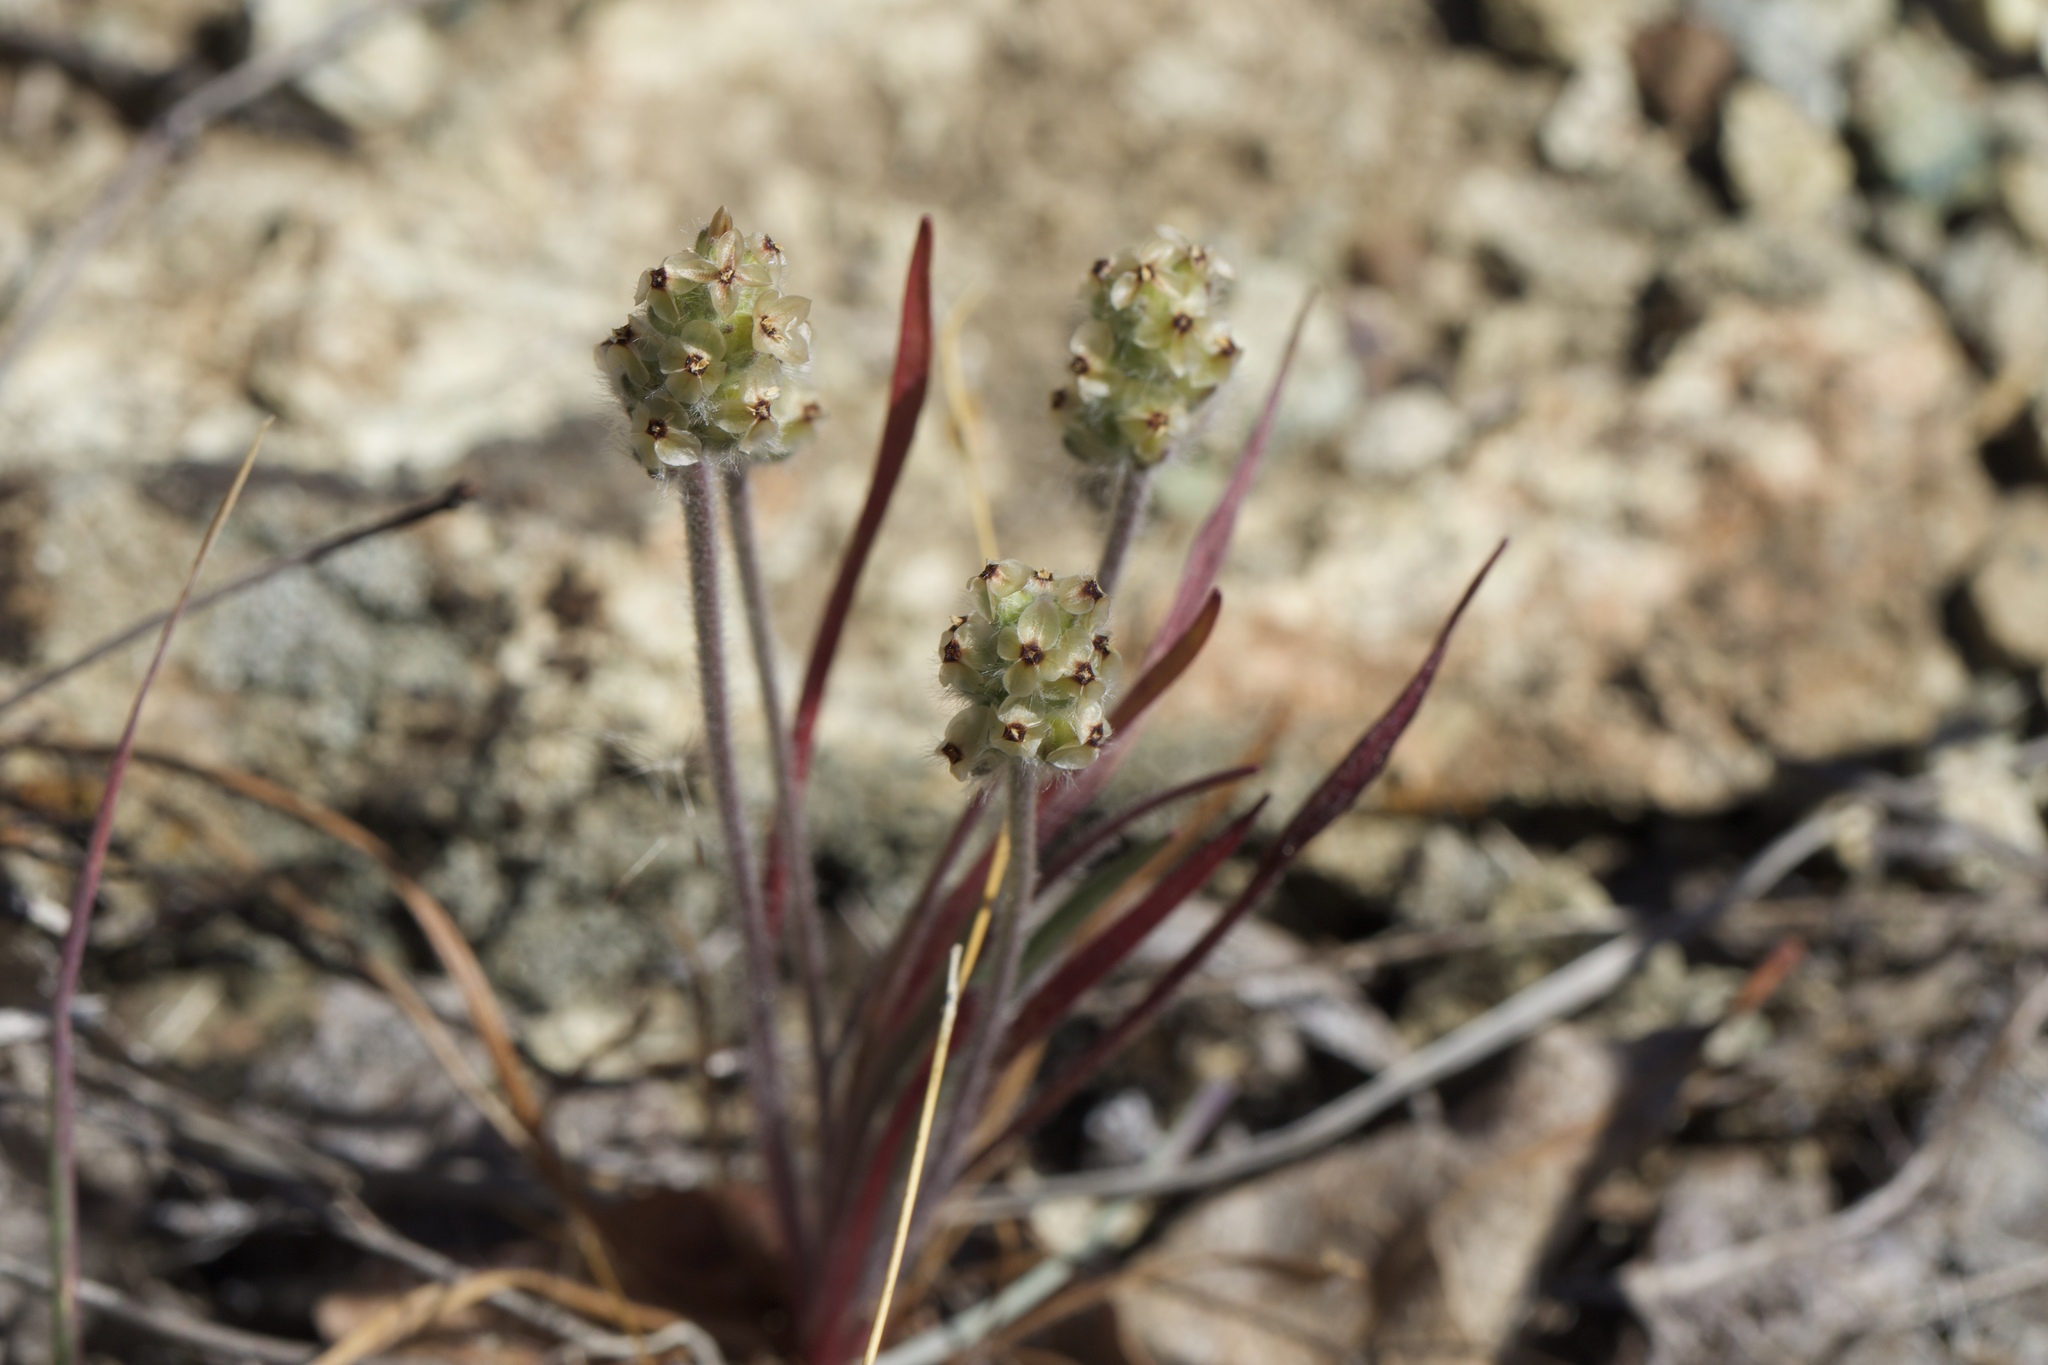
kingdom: Plantae
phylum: Tracheophyta
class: Magnoliopsida
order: Lamiales
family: Plantaginaceae
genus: Plantago
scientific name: Plantago erecta
